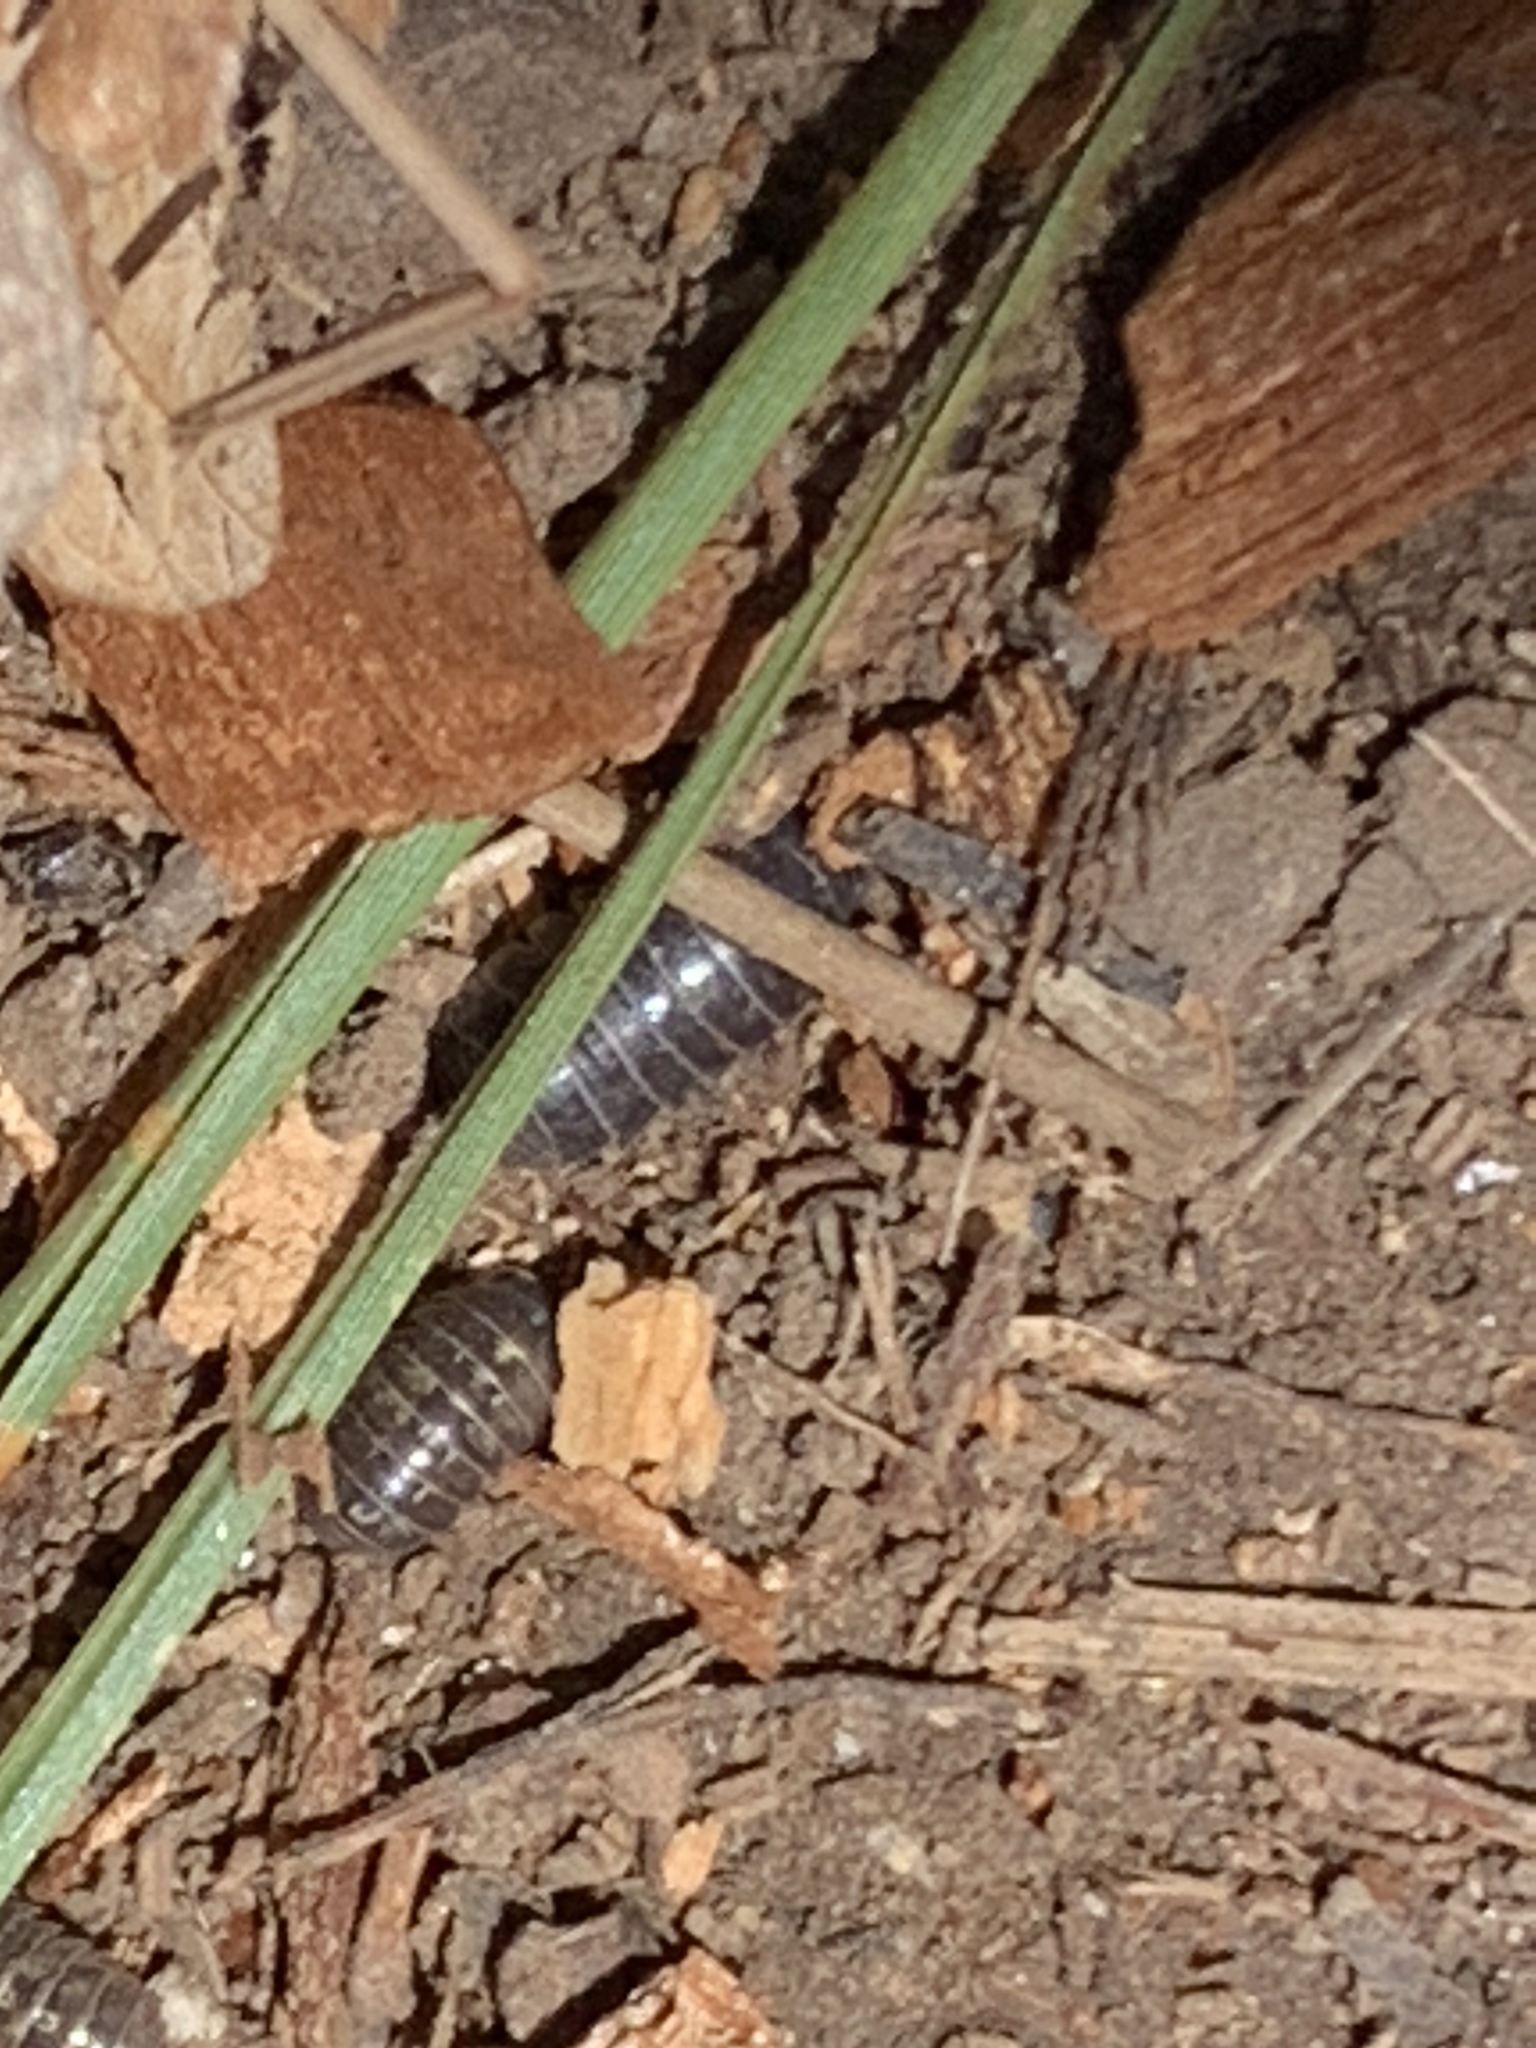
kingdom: Animalia
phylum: Arthropoda
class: Malacostraca
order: Isopoda
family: Armadillidiidae
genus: Armadillidium
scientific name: Armadillidium vulgare
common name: Common pill woodlouse
